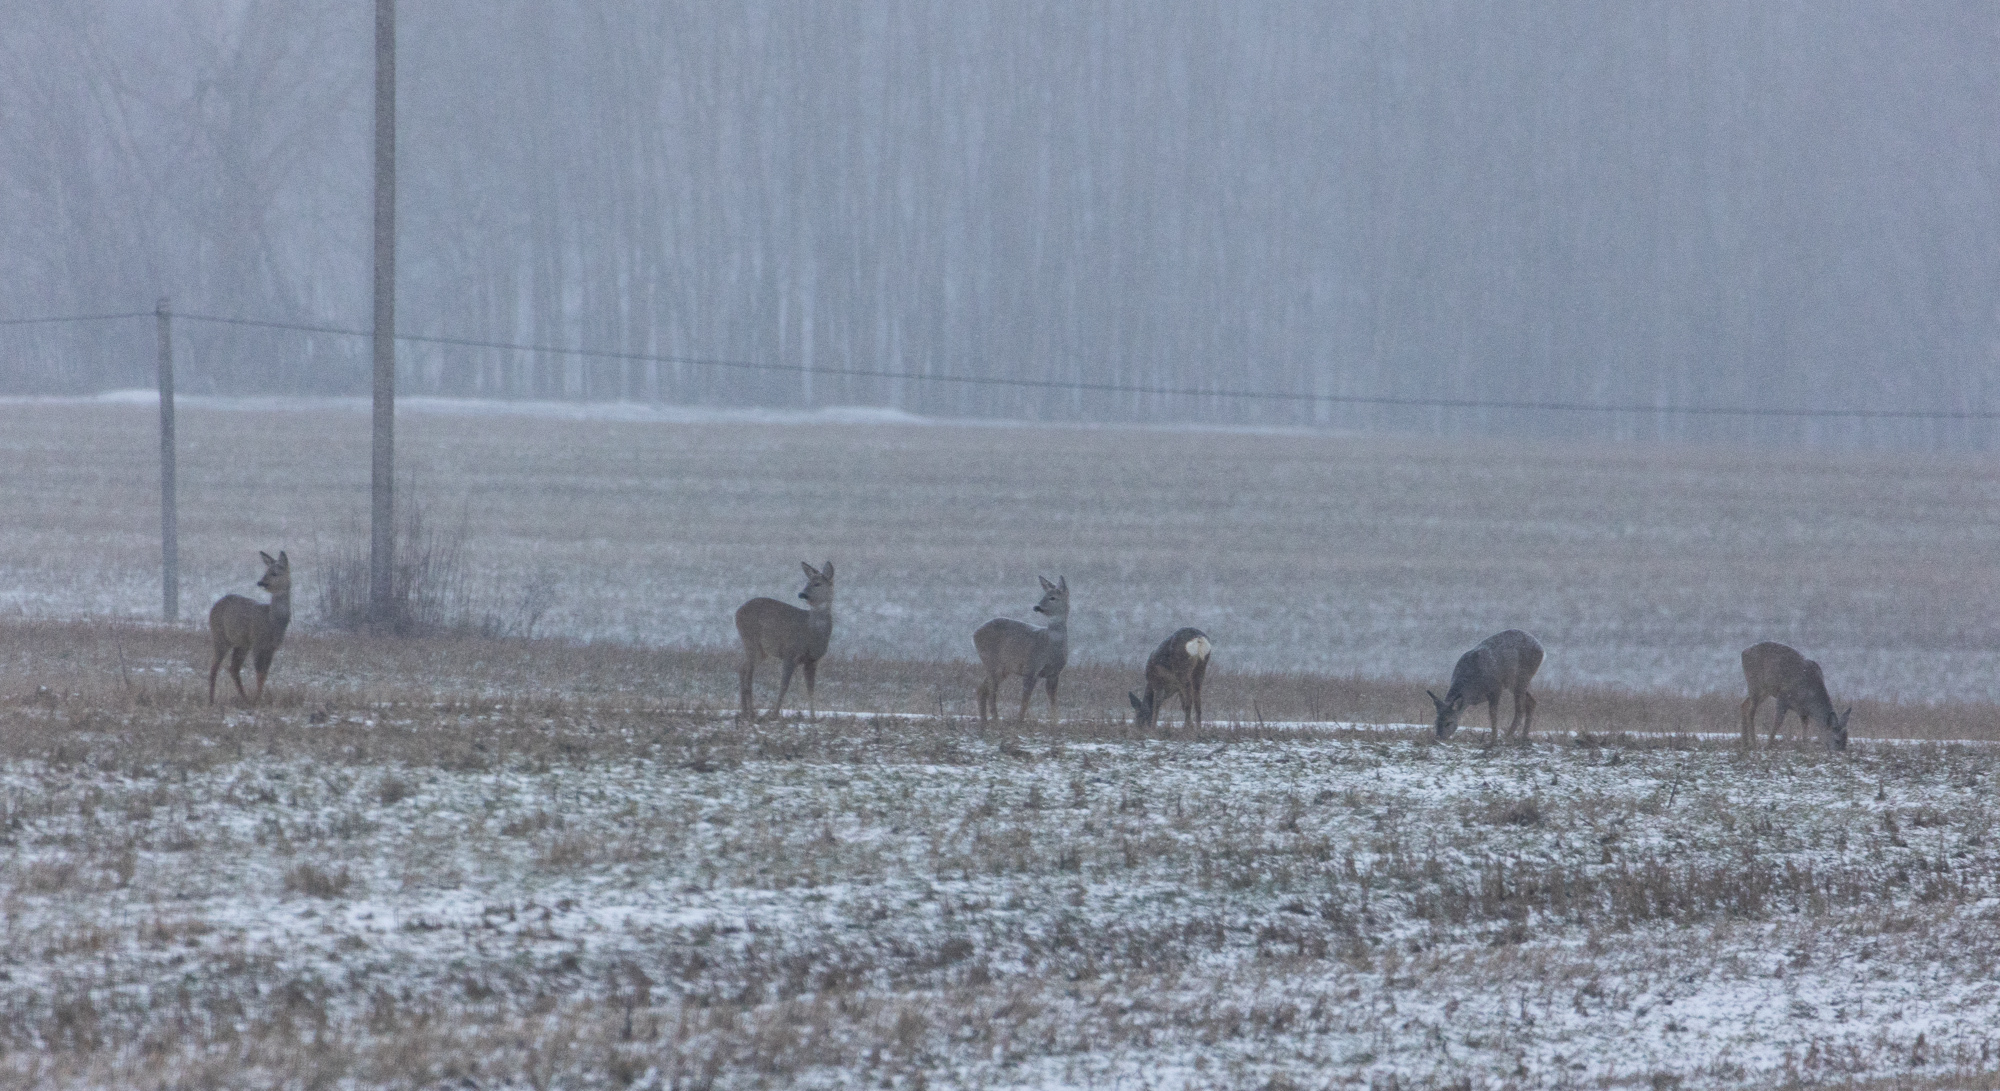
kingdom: Animalia
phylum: Chordata
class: Mammalia
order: Artiodactyla
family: Cervidae
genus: Capreolus
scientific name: Capreolus capreolus
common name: Western roe deer
